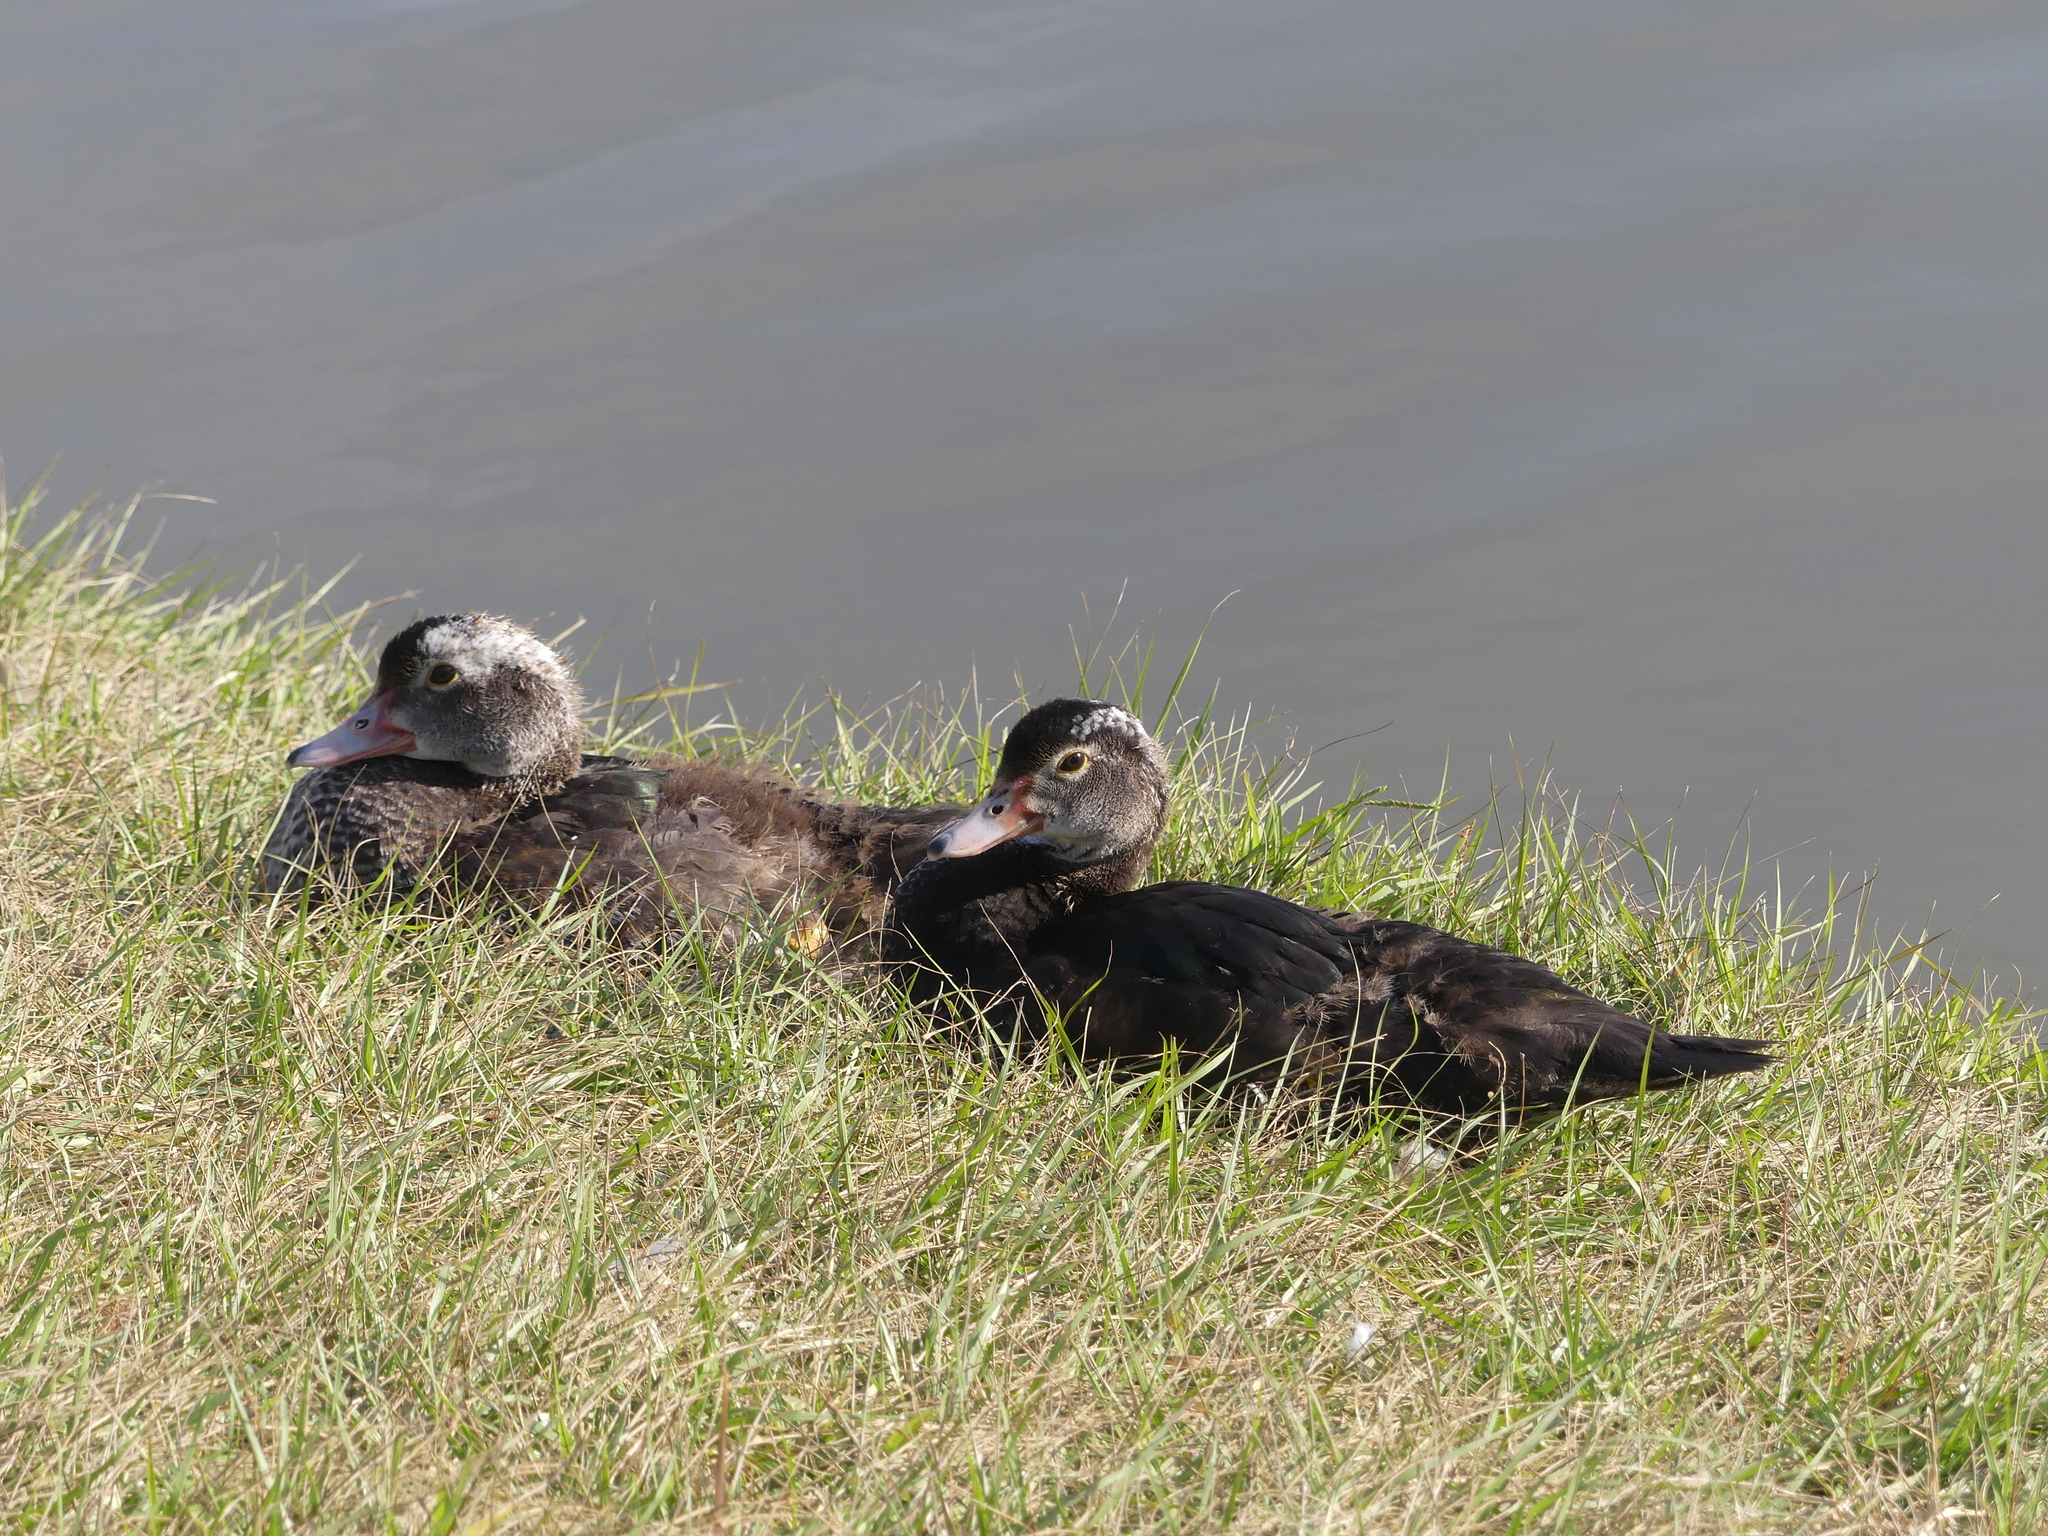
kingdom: Animalia
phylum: Chordata
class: Aves
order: Anseriformes
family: Anatidae
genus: Cairina
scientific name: Cairina moschata
